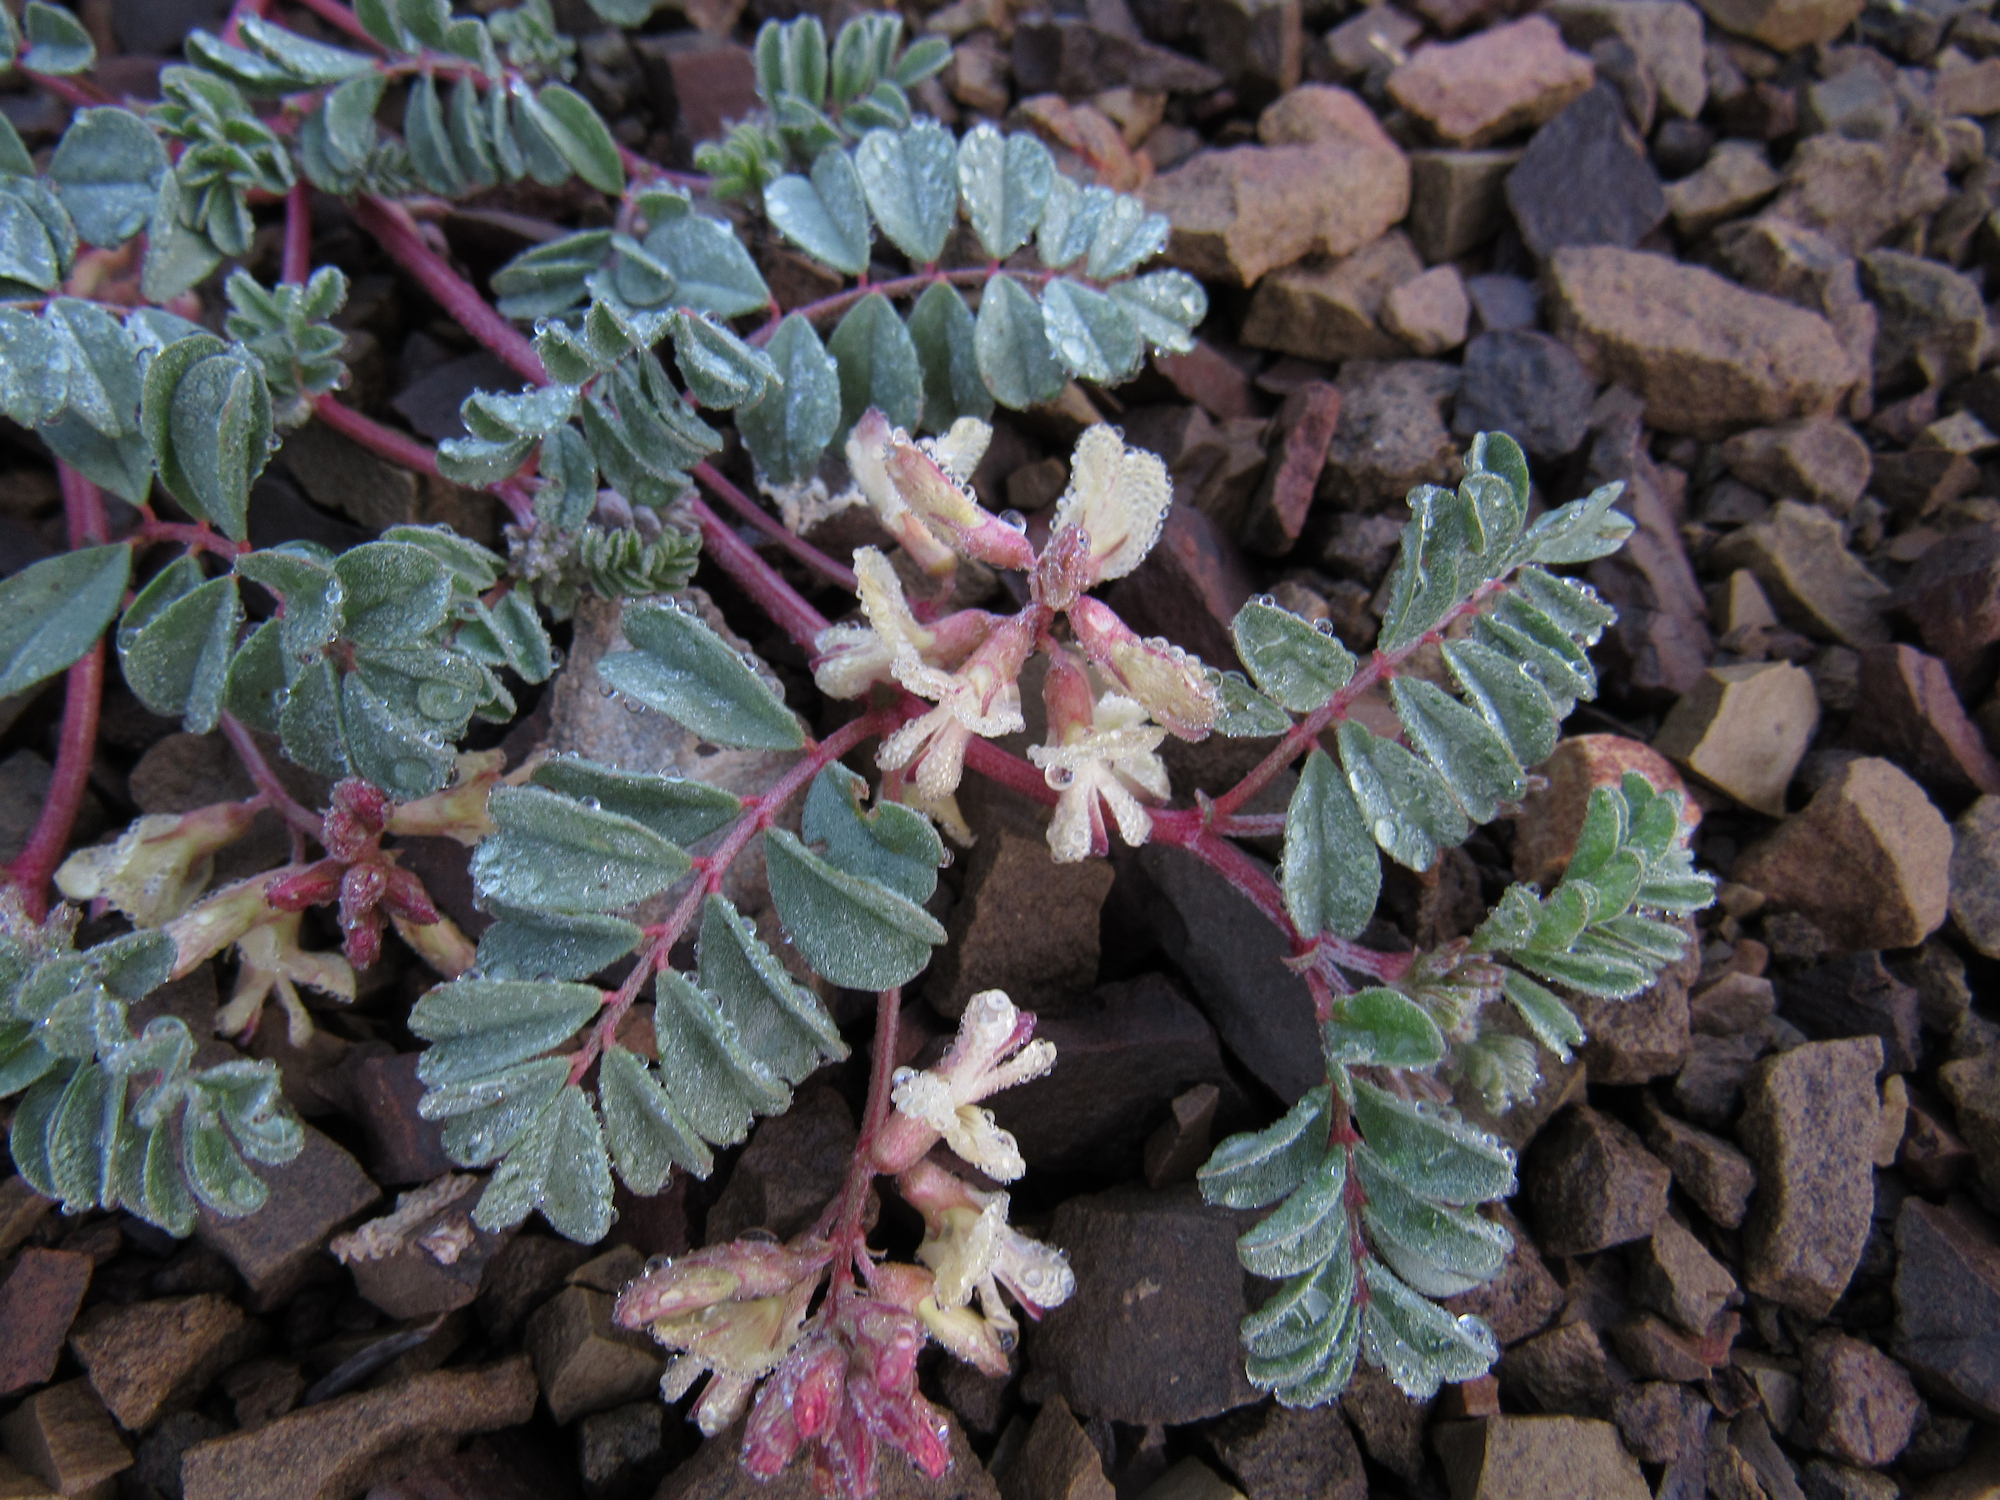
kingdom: Plantae
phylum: Tracheophyta
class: Magnoliopsida
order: Fabales
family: Fabaceae
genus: Astragalus
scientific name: Astragalus amblytropis
